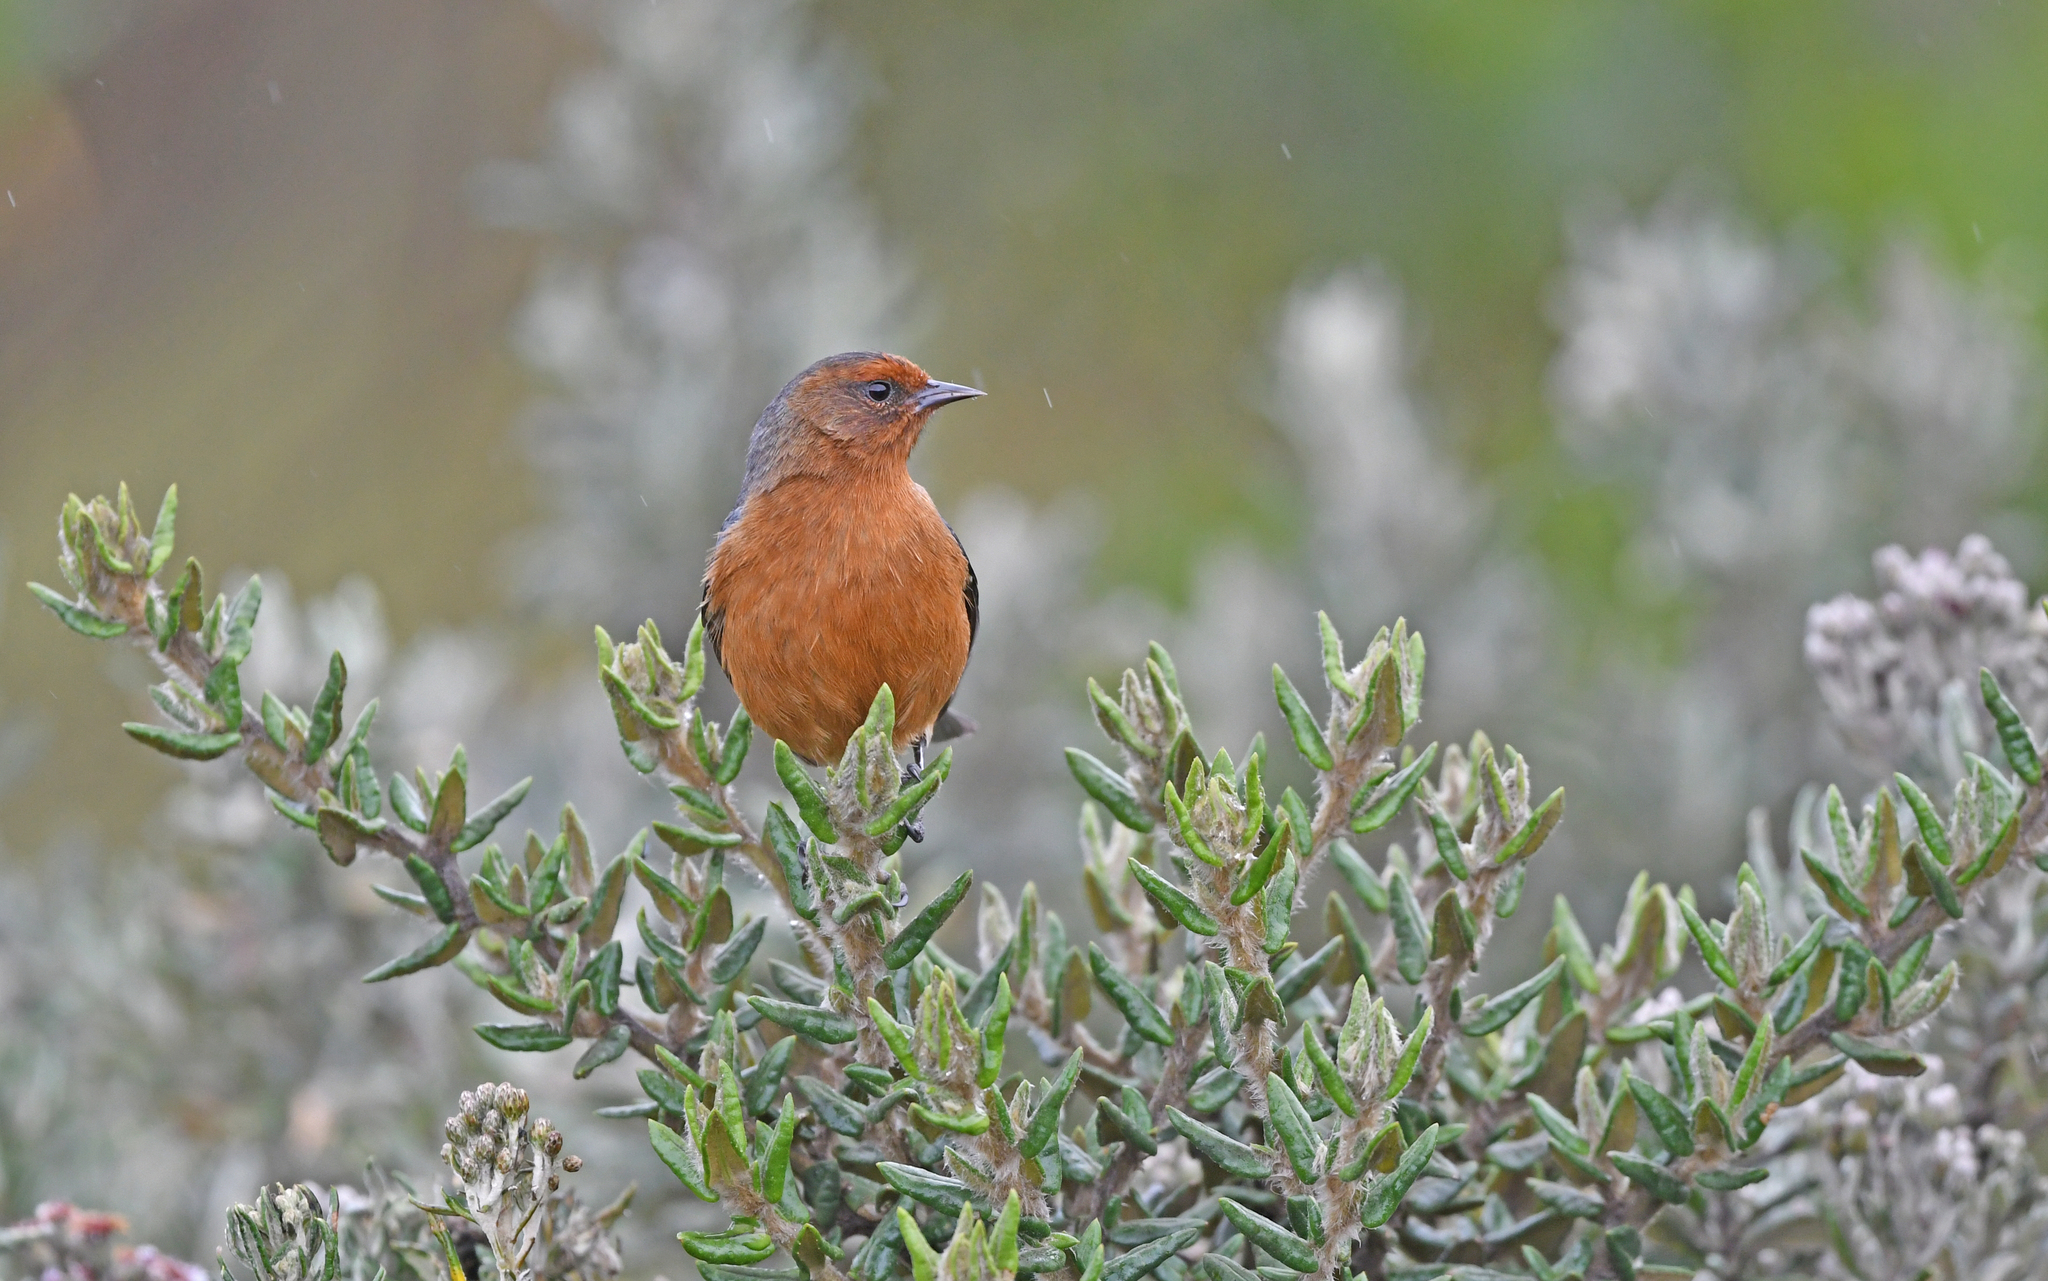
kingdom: Animalia
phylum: Chordata
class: Aves
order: Passeriformes
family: Thraupidae
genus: Conirostrum
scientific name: Conirostrum rufum
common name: Rufous-browed conebill
